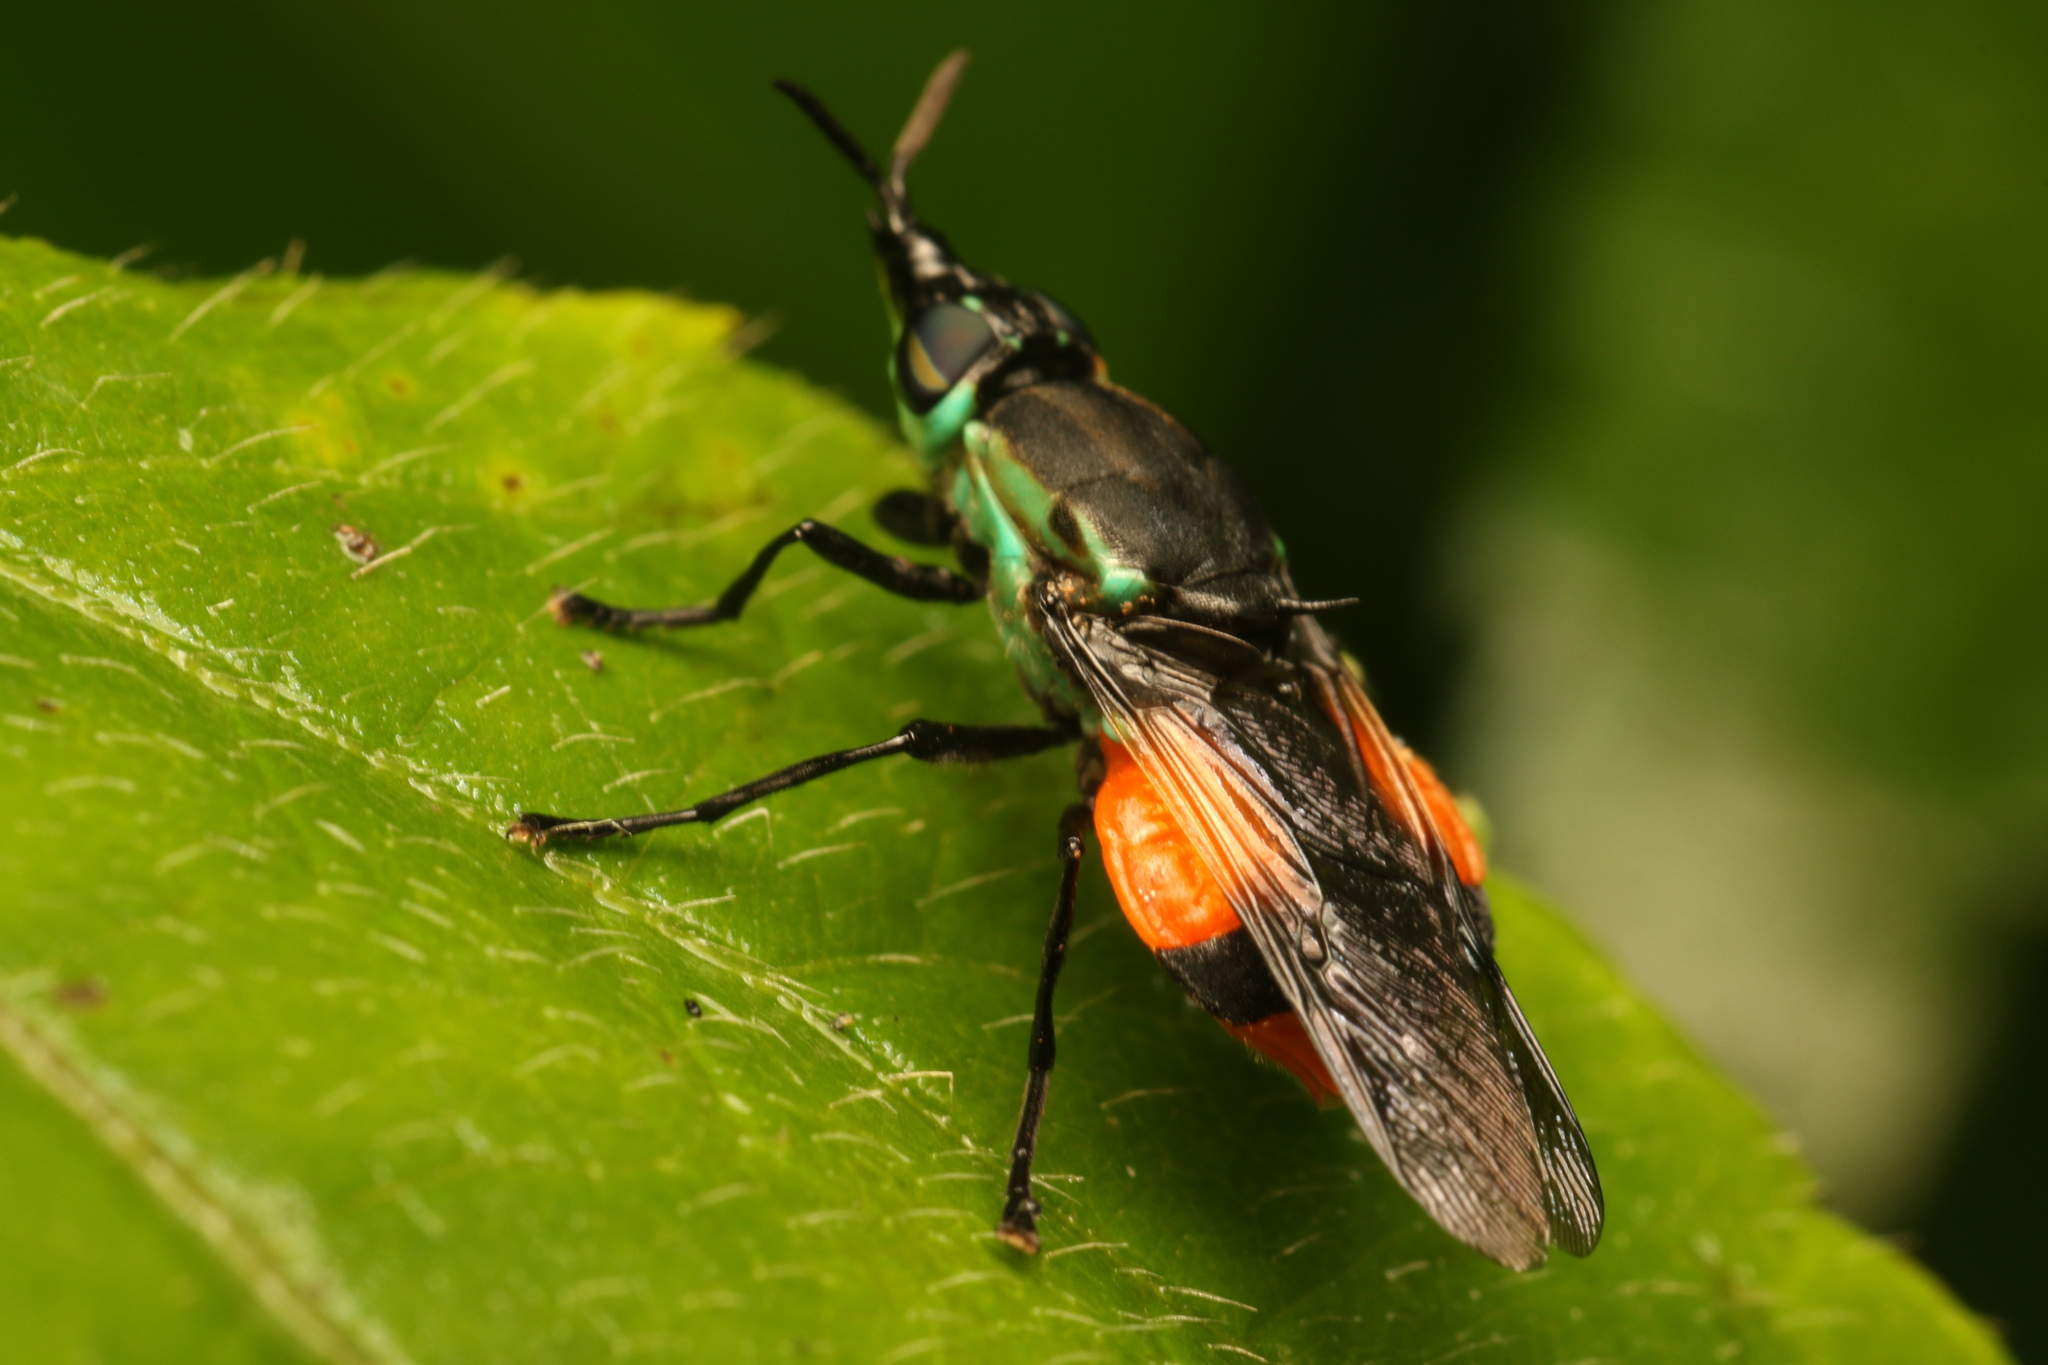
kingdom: Animalia
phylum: Arthropoda
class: Insecta
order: Diptera
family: Stratiomyidae
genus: Rhingiopsis
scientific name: Rhingiopsis tau
